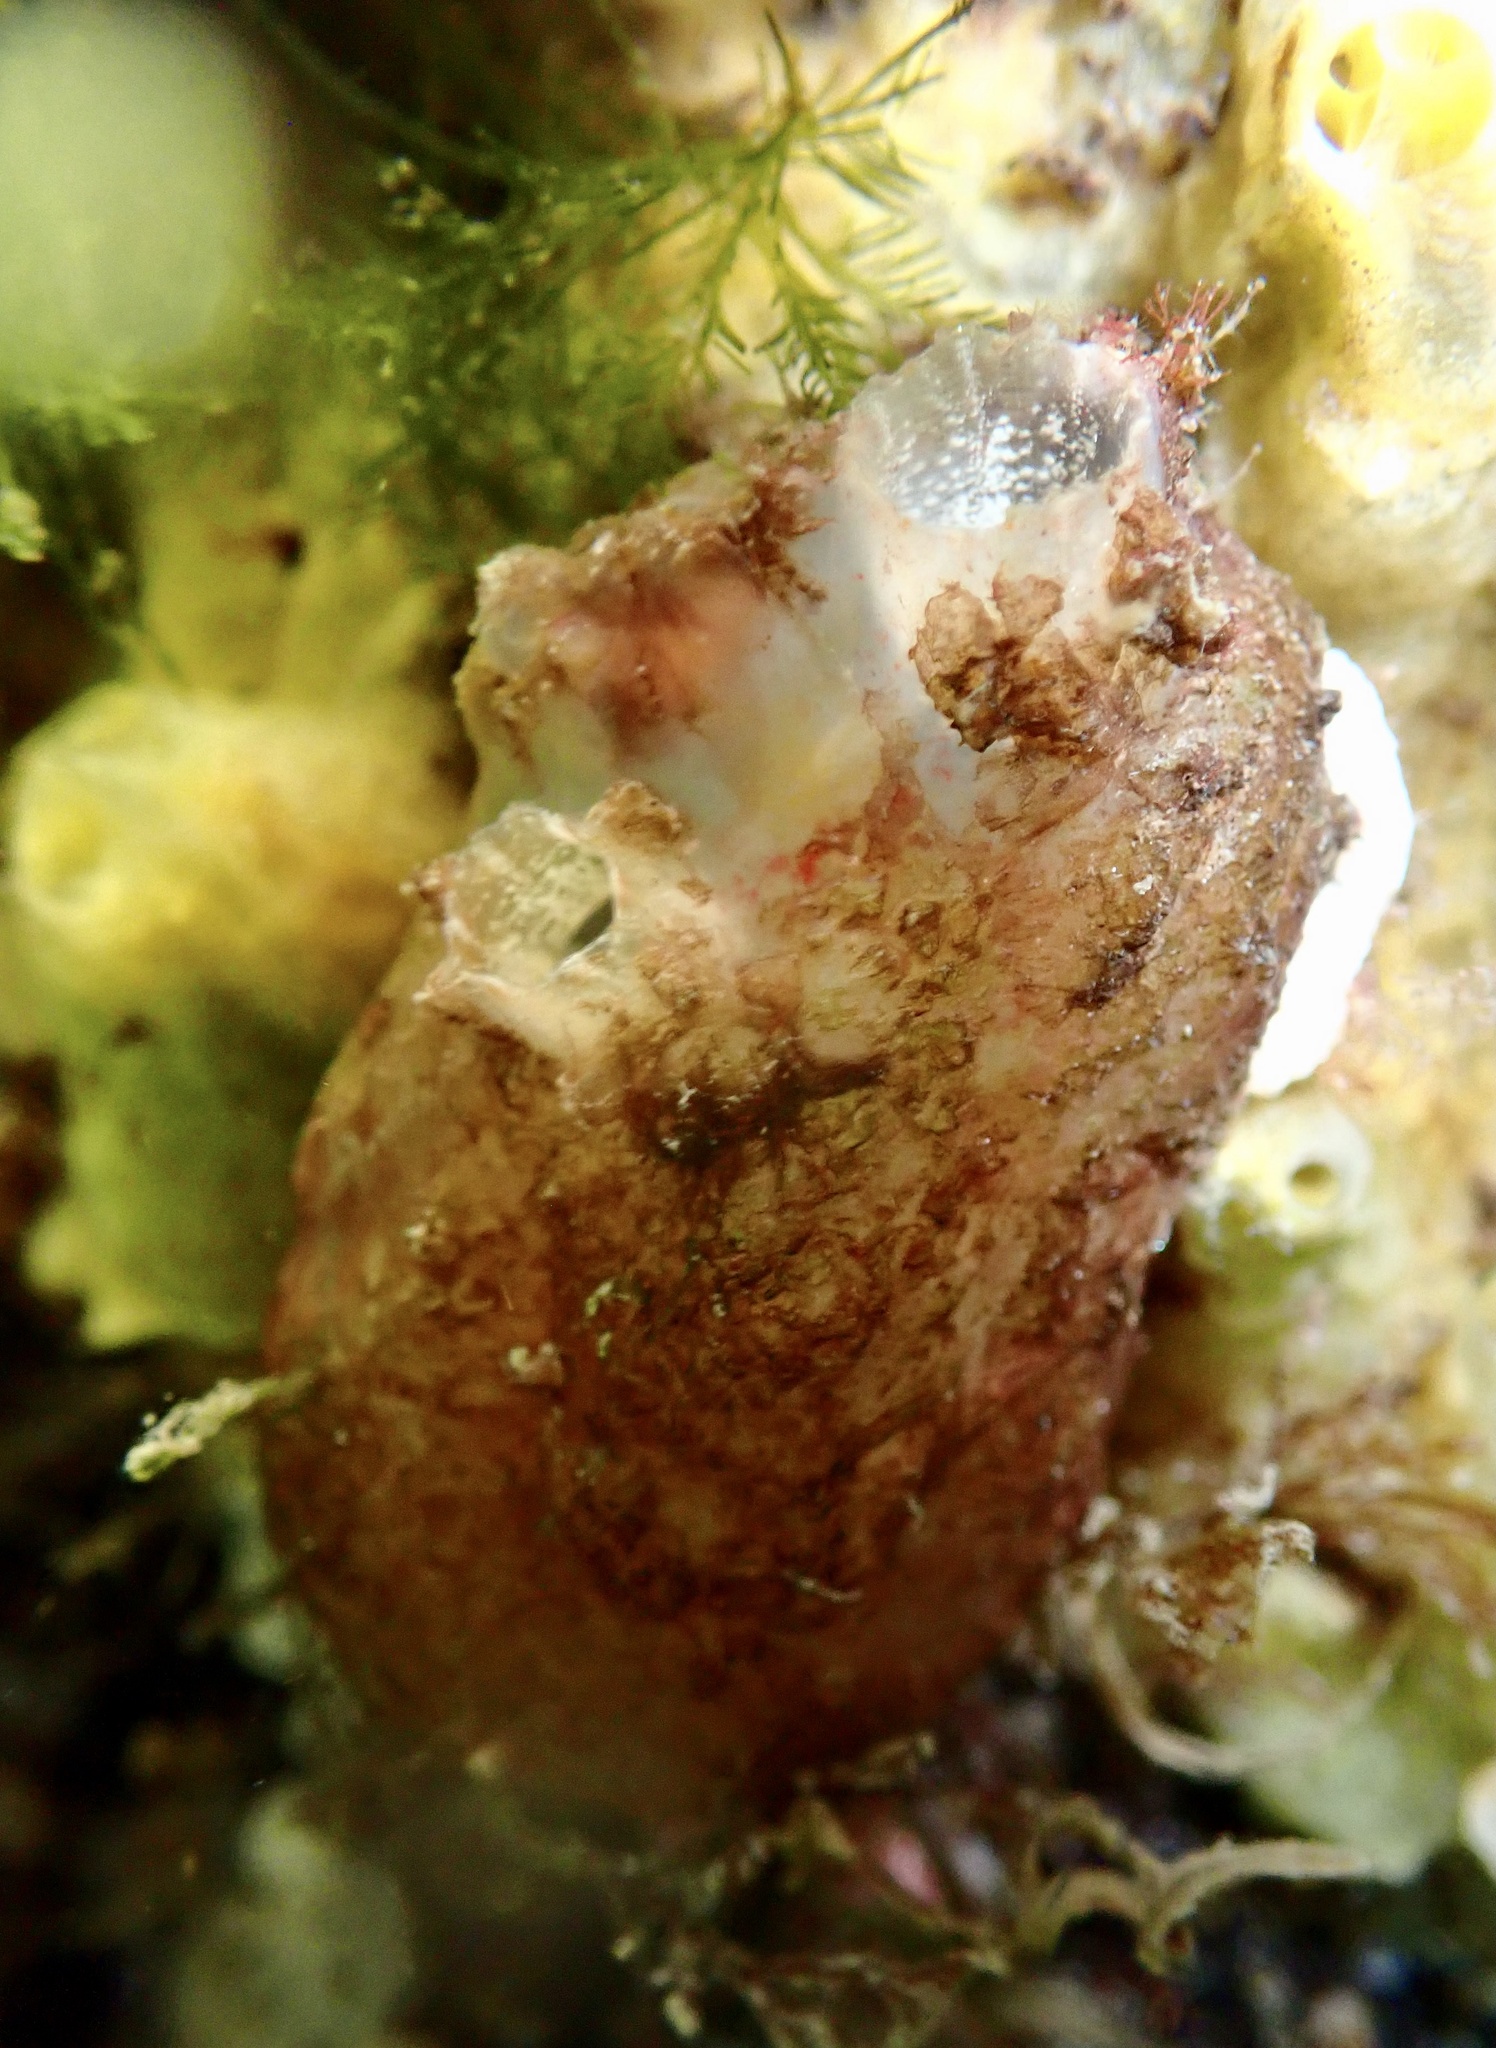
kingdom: Animalia
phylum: Chordata
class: Ascidiacea
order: Phlebobranchia
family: Ascidiidae
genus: Ascidiella
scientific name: Ascidiella aspersa
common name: Dirty sea-squirt
